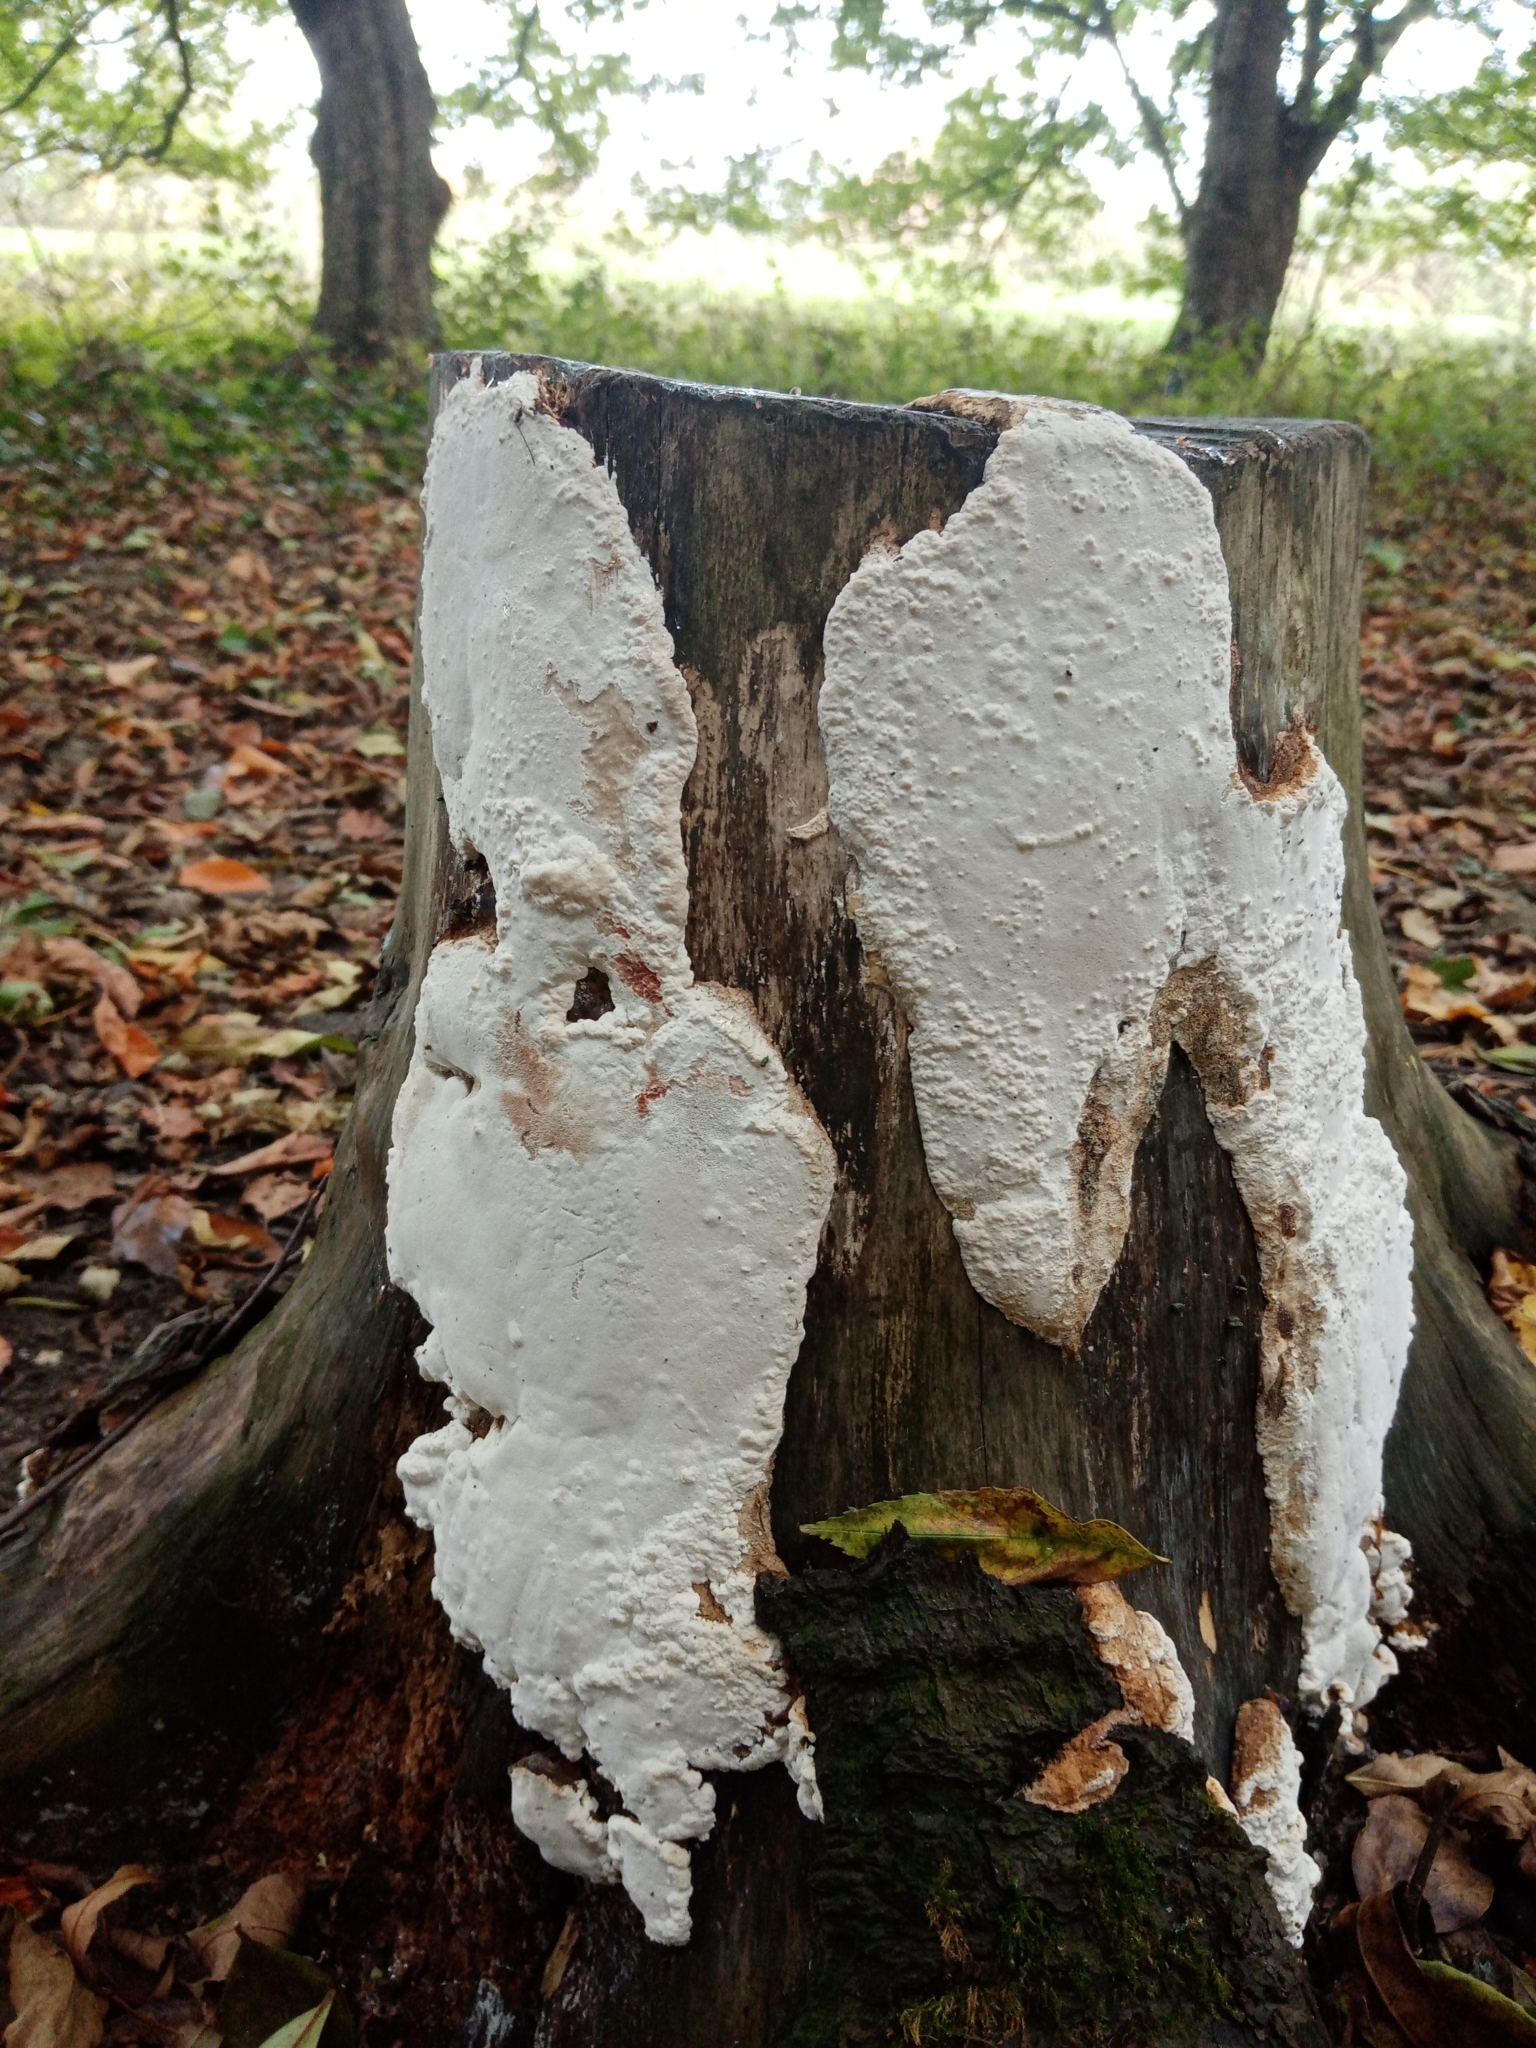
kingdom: Fungi
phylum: Basidiomycota
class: Agaricomycetes
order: Polyporales
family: Irpicaceae
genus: Byssomerulius
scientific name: Byssomerulius corium
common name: Netted crust
